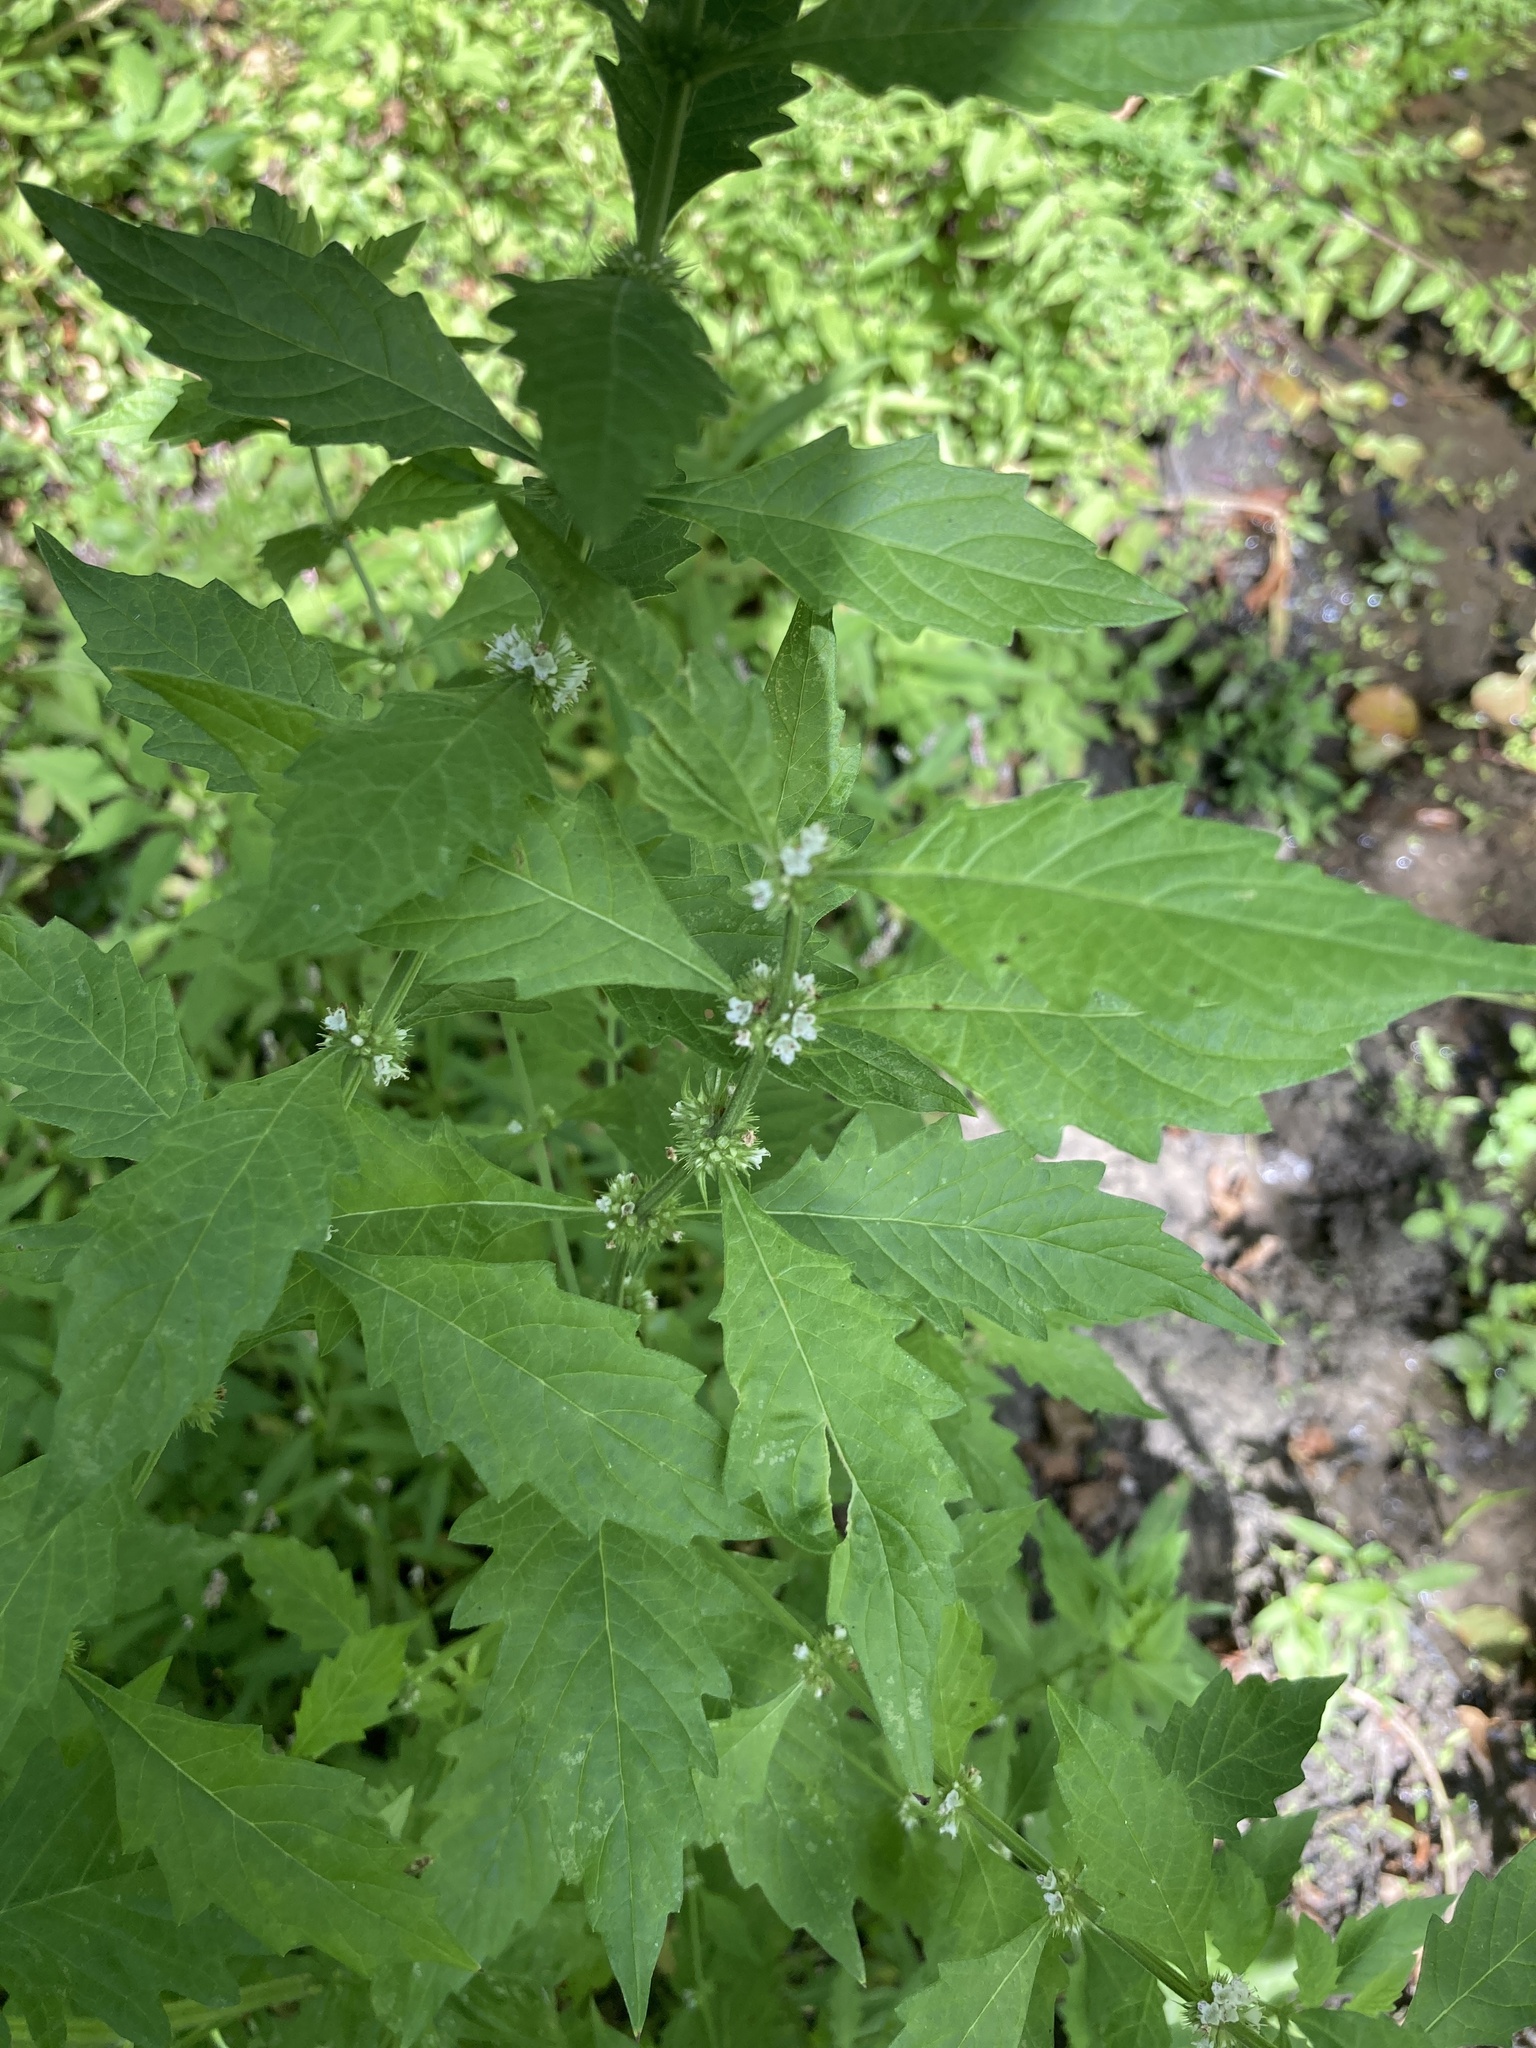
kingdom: Plantae
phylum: Tracheophyta
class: Magnoliopsida
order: Lamiales
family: Lamiaceae
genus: Lycopus
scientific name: Lycopus europaeus
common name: European bugleweed
